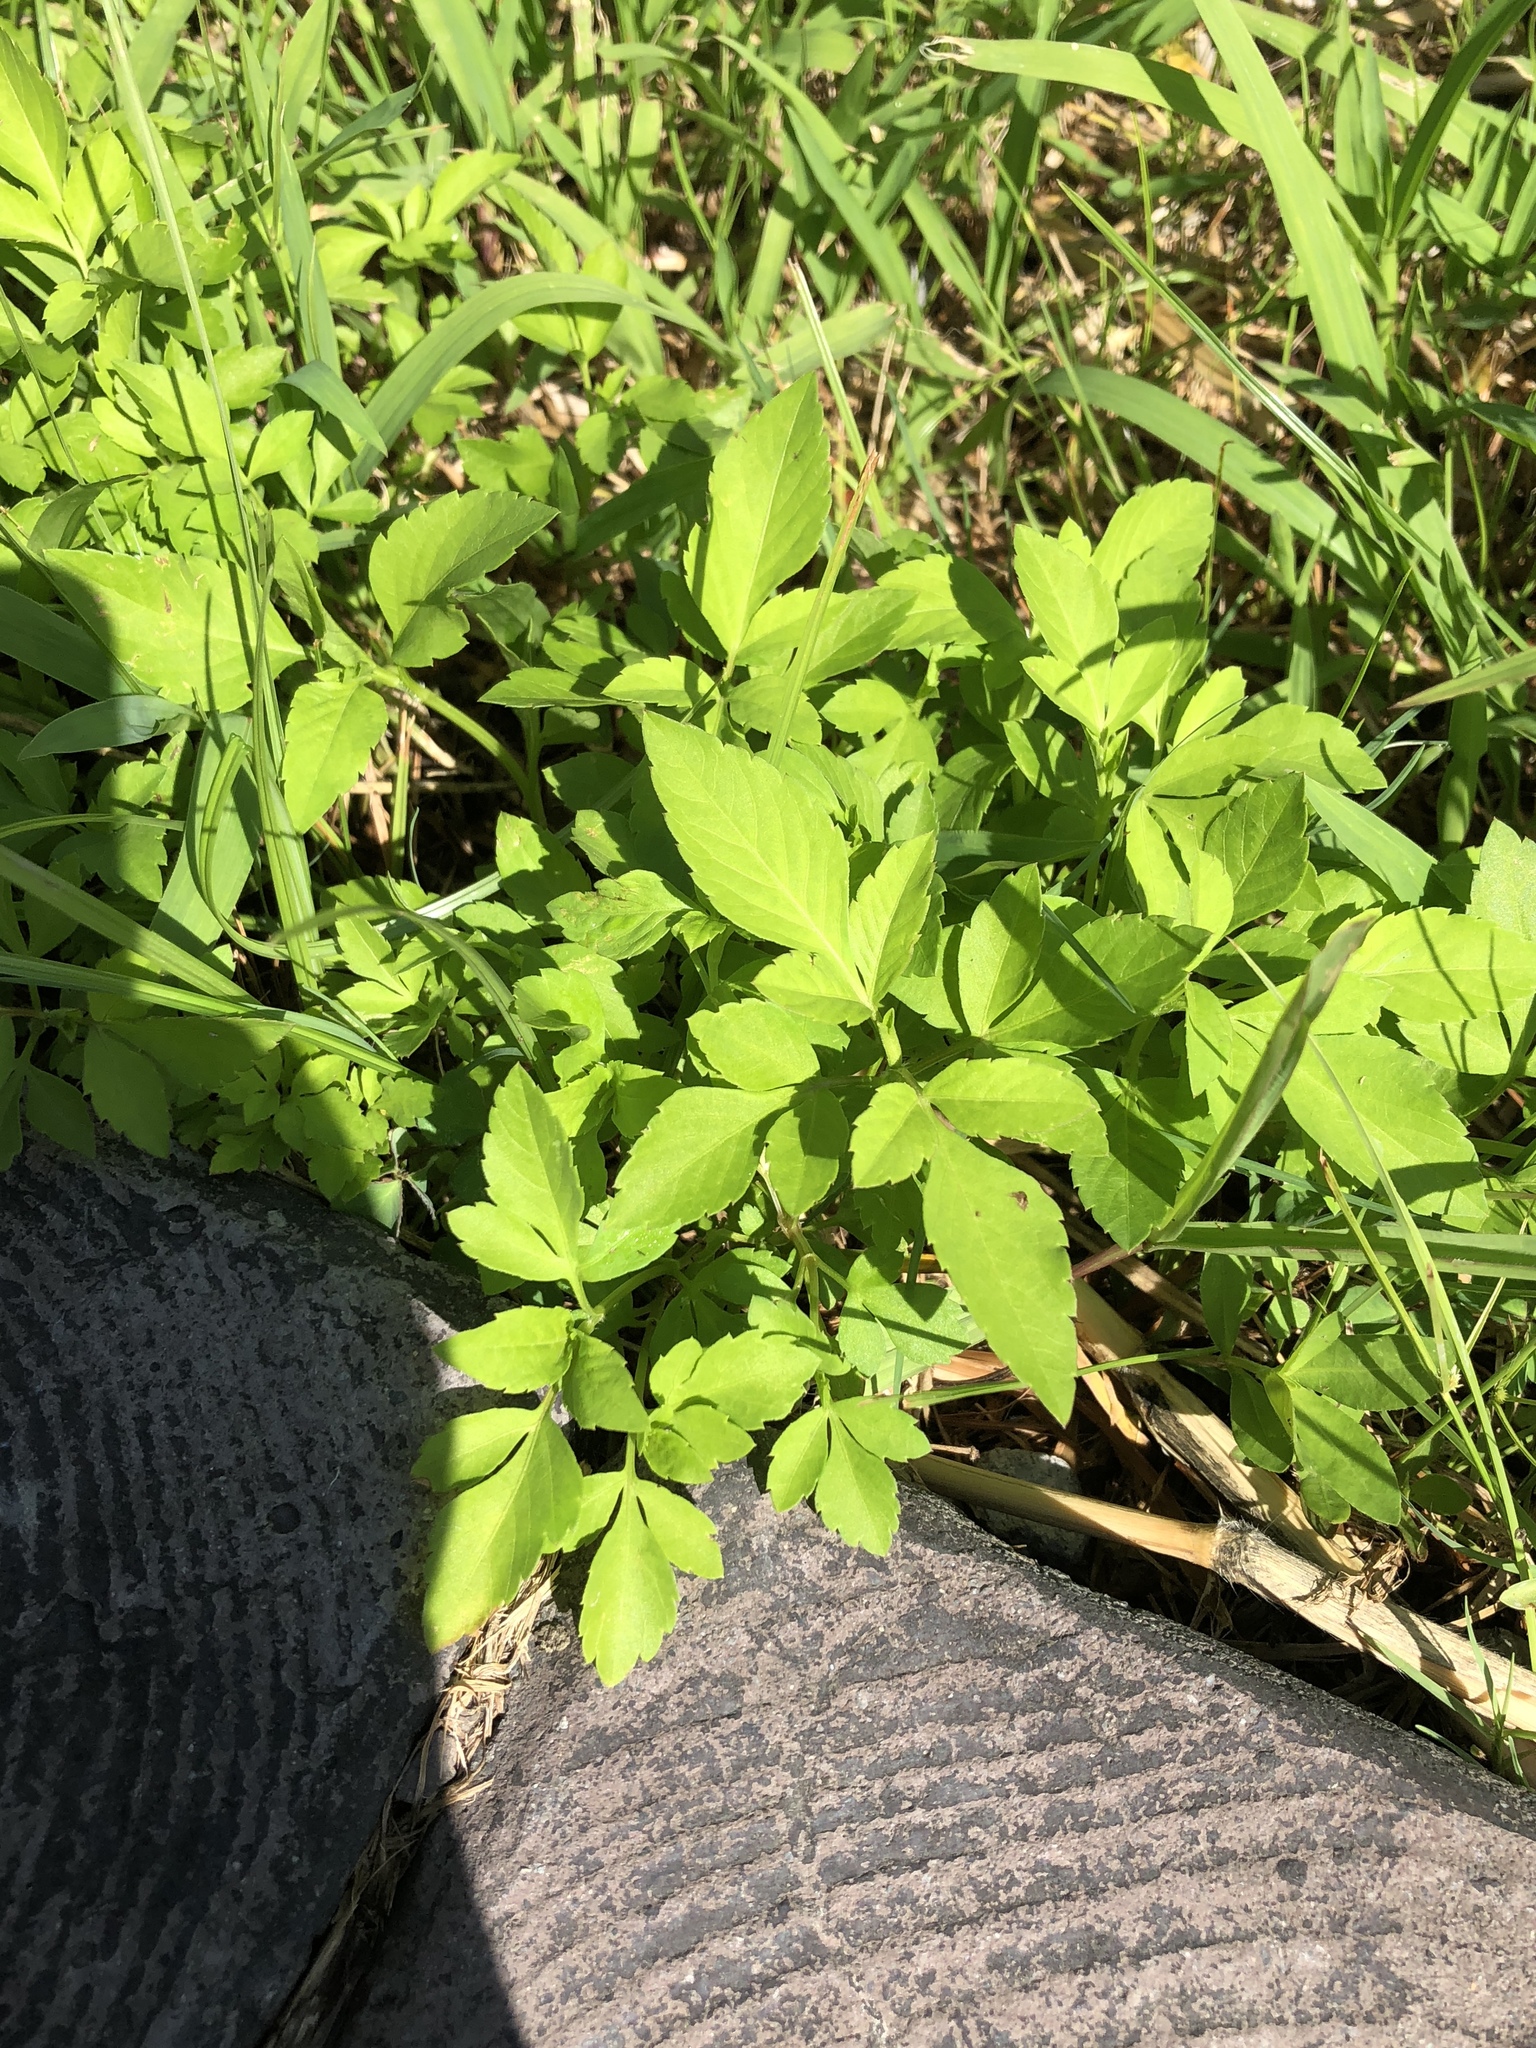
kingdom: Plantae
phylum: Tracheophyta
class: Magnoliopsida
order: Asterales
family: Asteraceae
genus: Bidens
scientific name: Bidens alba
